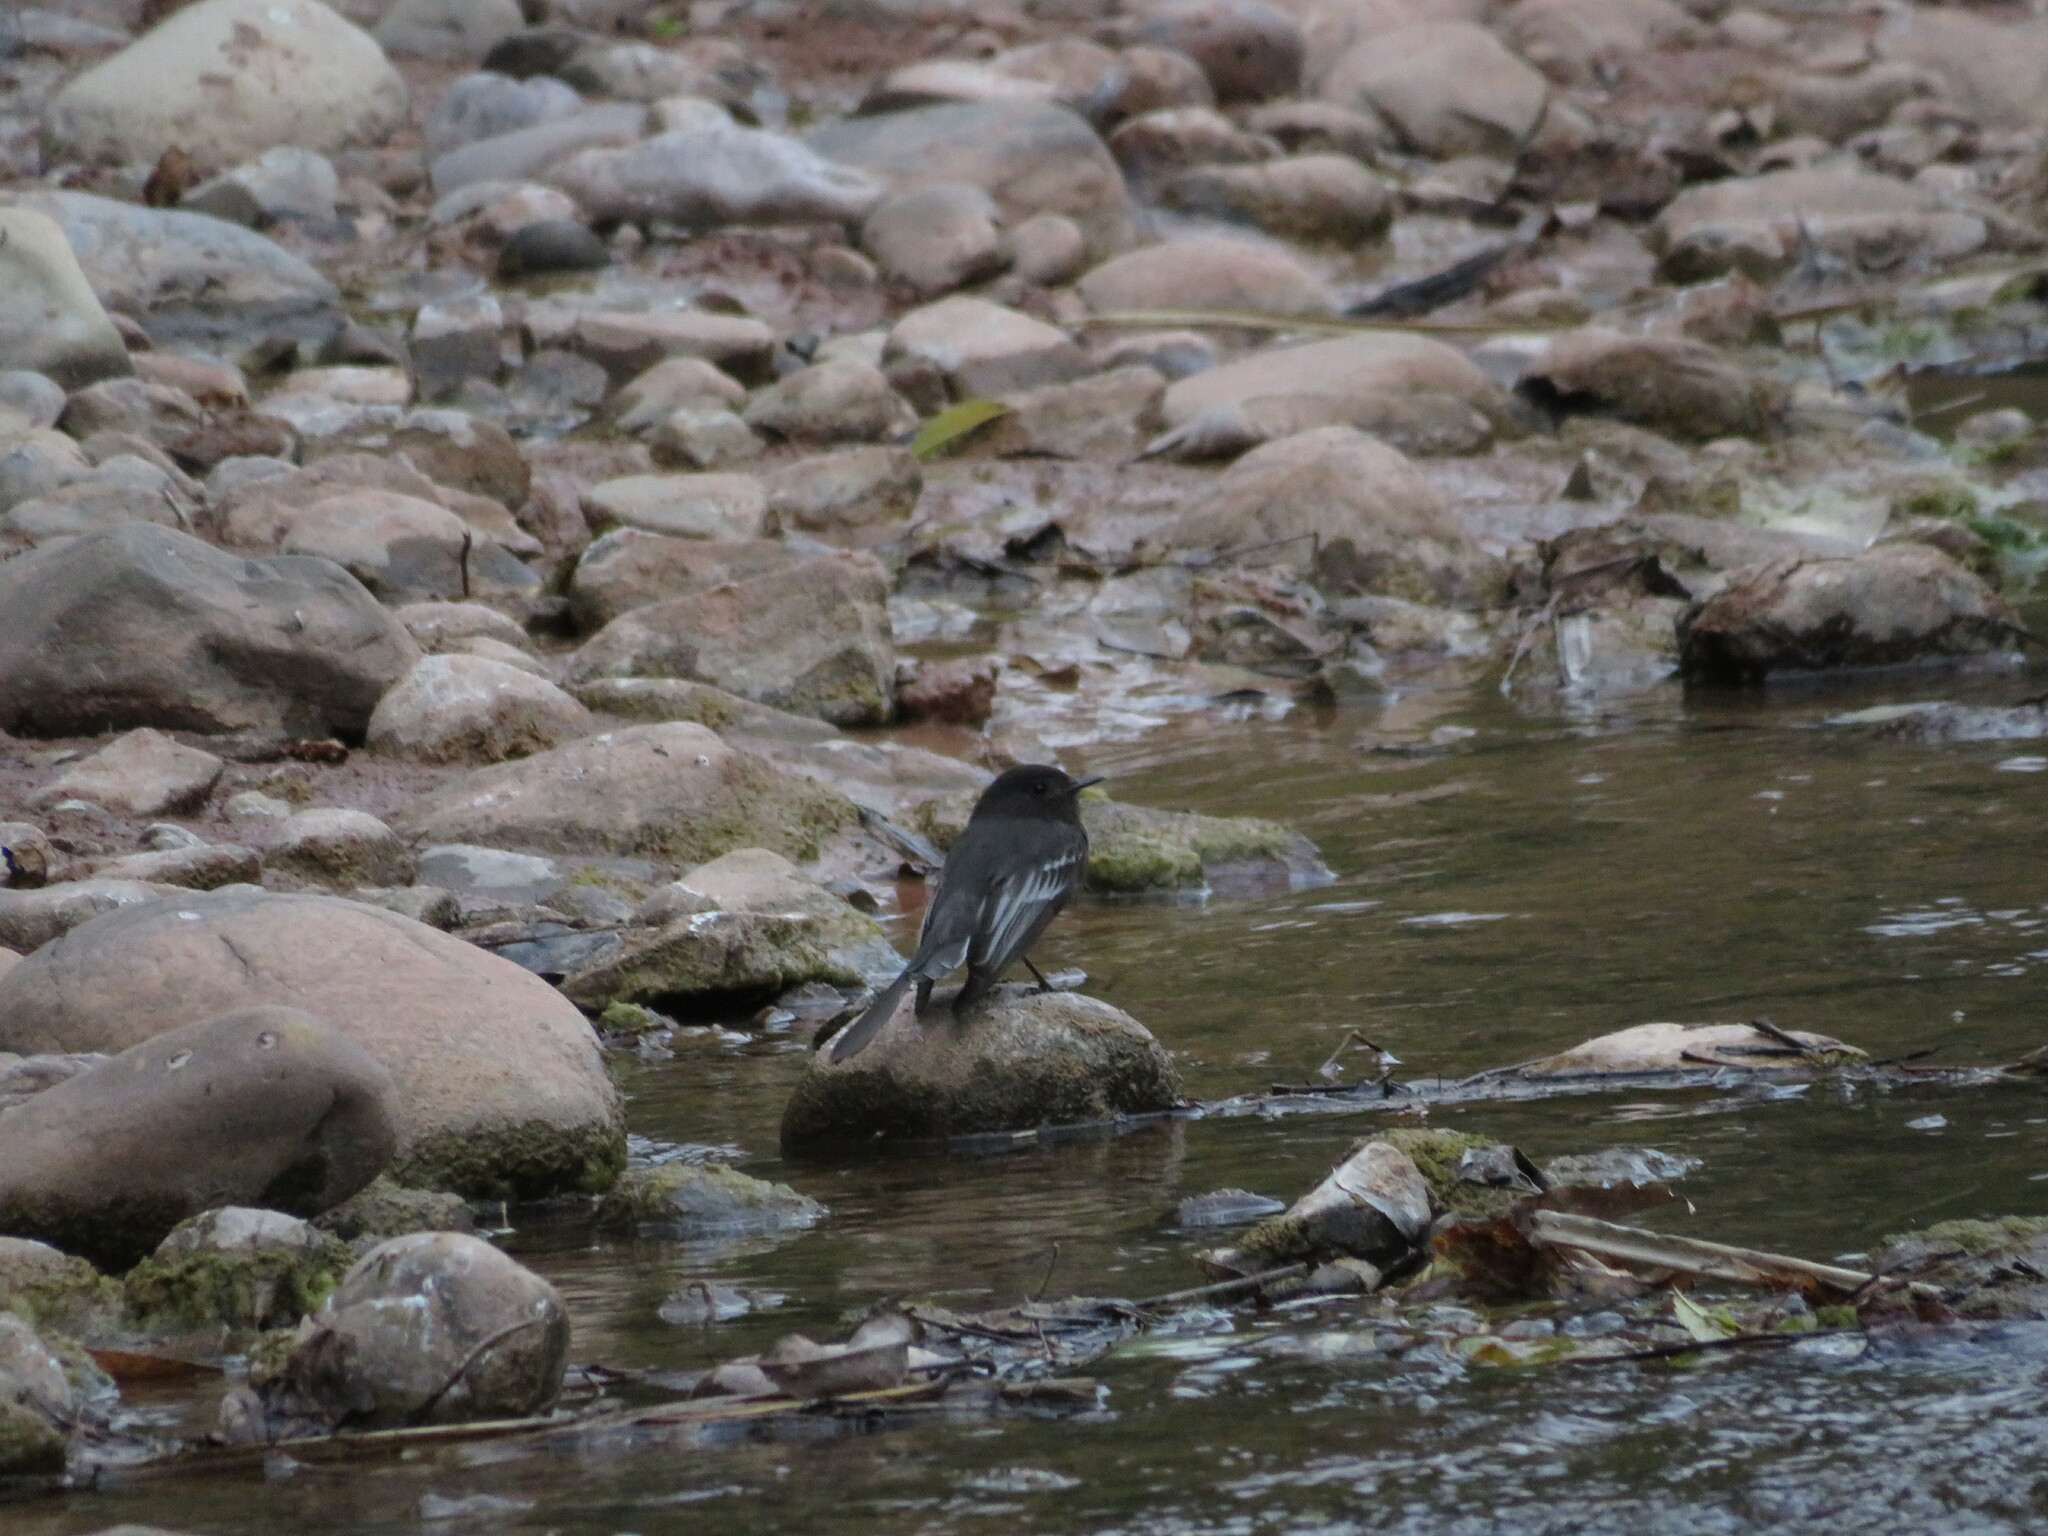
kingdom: Animalia
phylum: Chordata
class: Aves
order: Passeriformes
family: Tyrannidae
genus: Sayornis
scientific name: Sayornis nigricans
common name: Black phoebe
